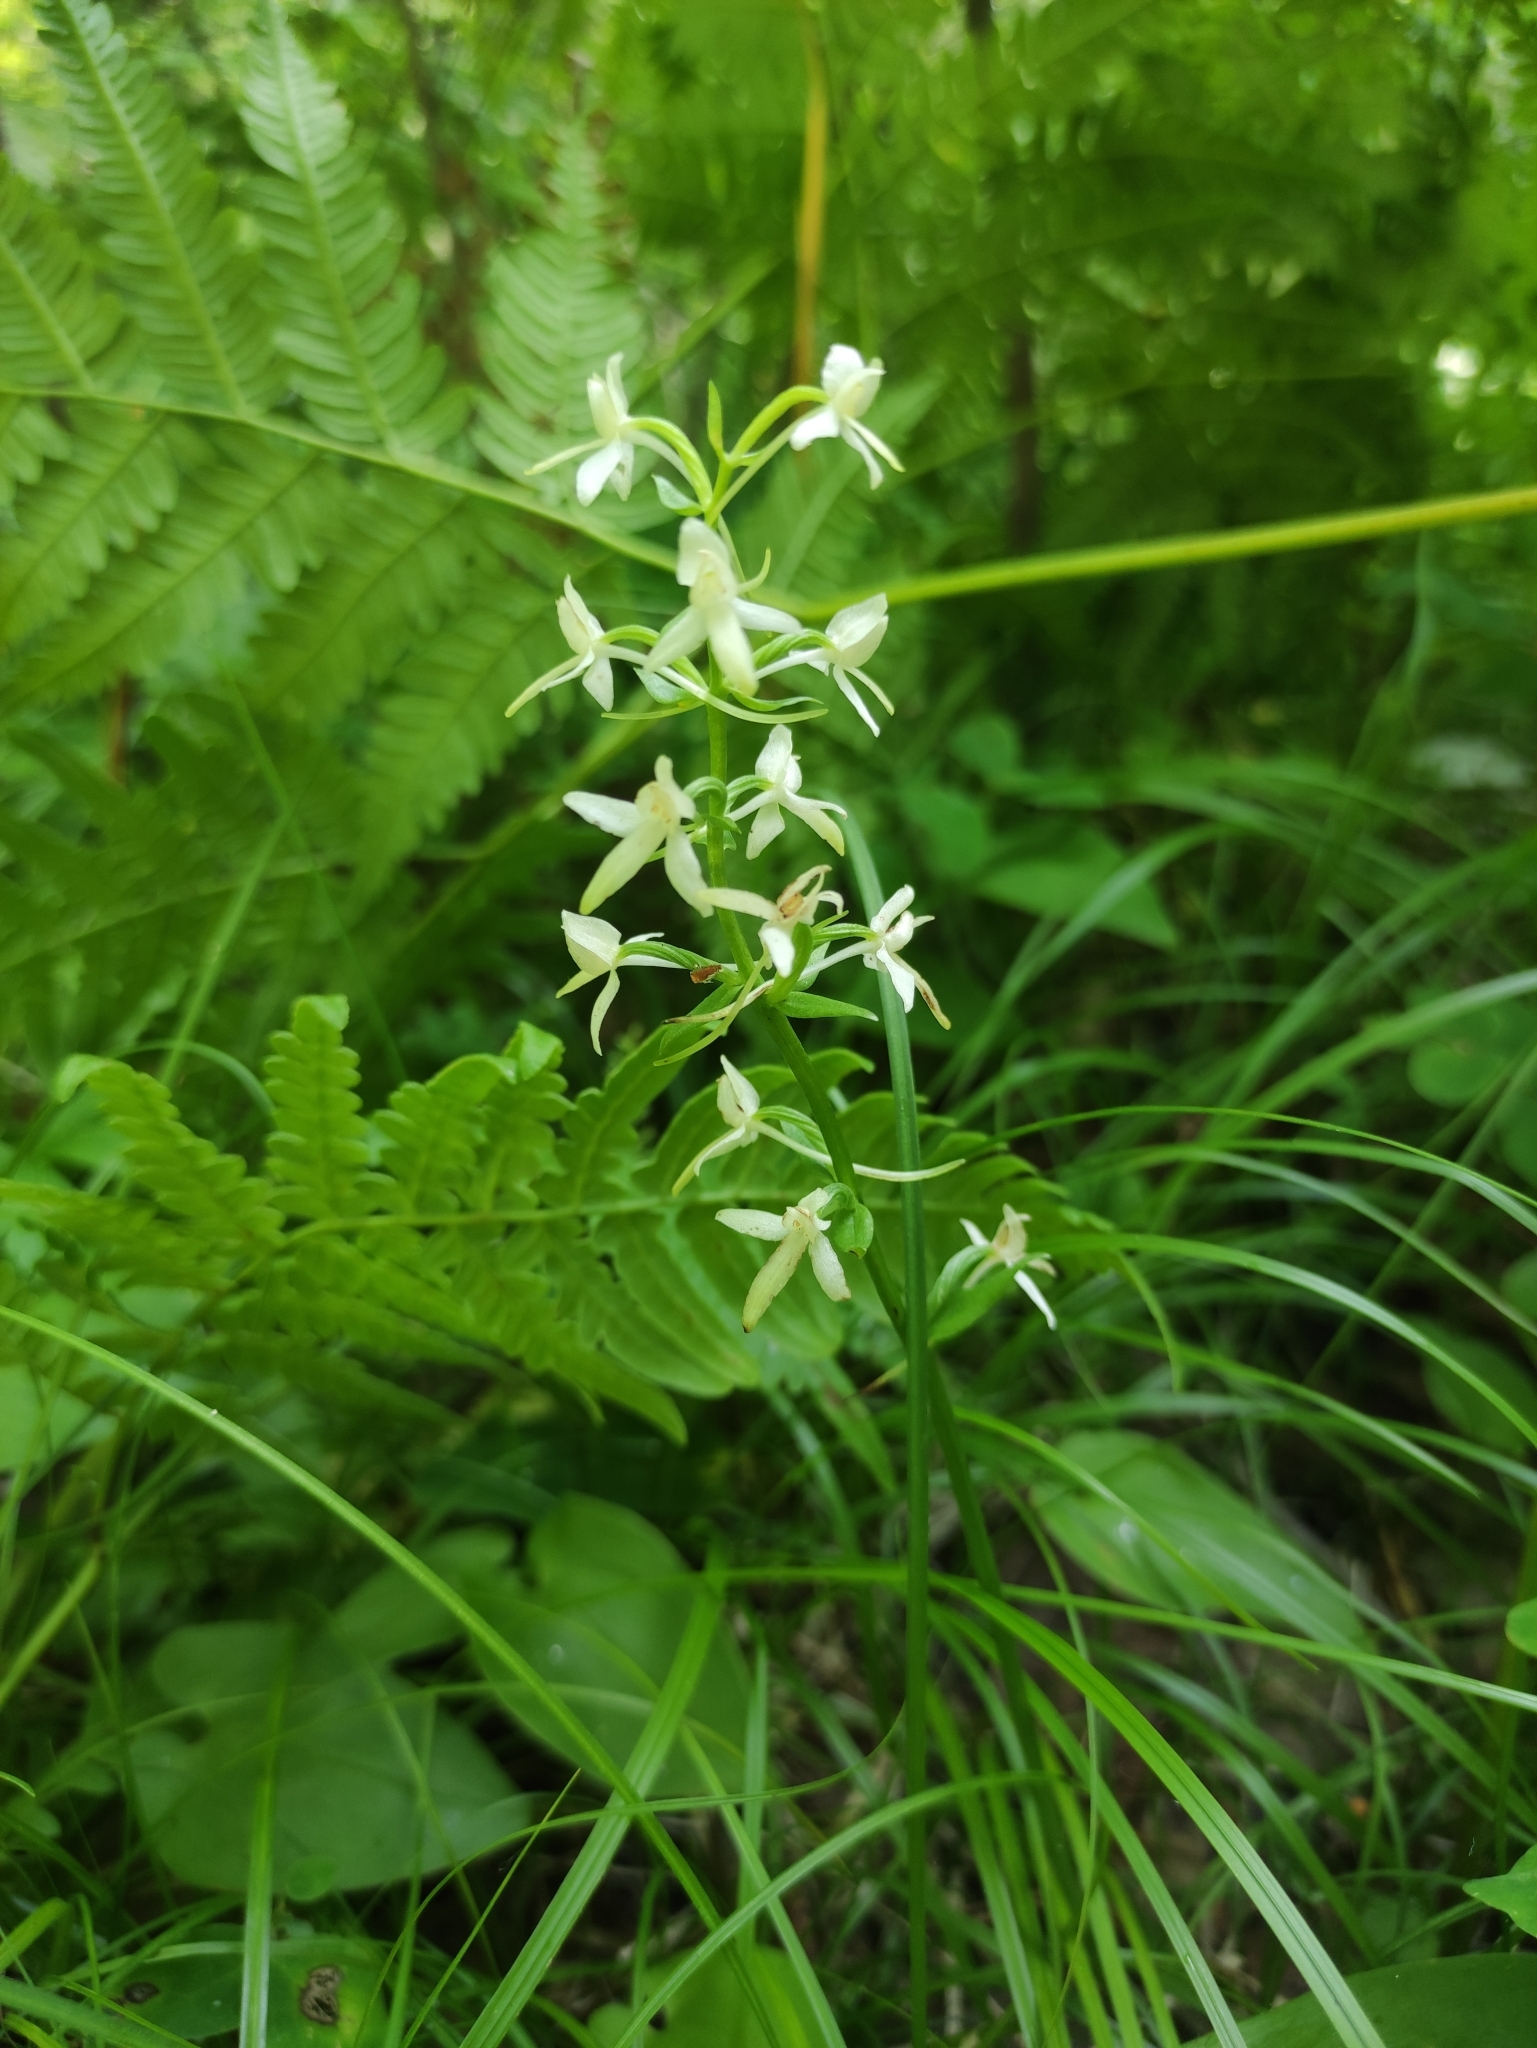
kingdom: Plantae
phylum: Tracheophyta
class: Liliopsida
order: Asparagales
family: Orchidaceae
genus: Platanthera
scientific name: Platanthera bifolia
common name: Lesser butterfly-orchid
